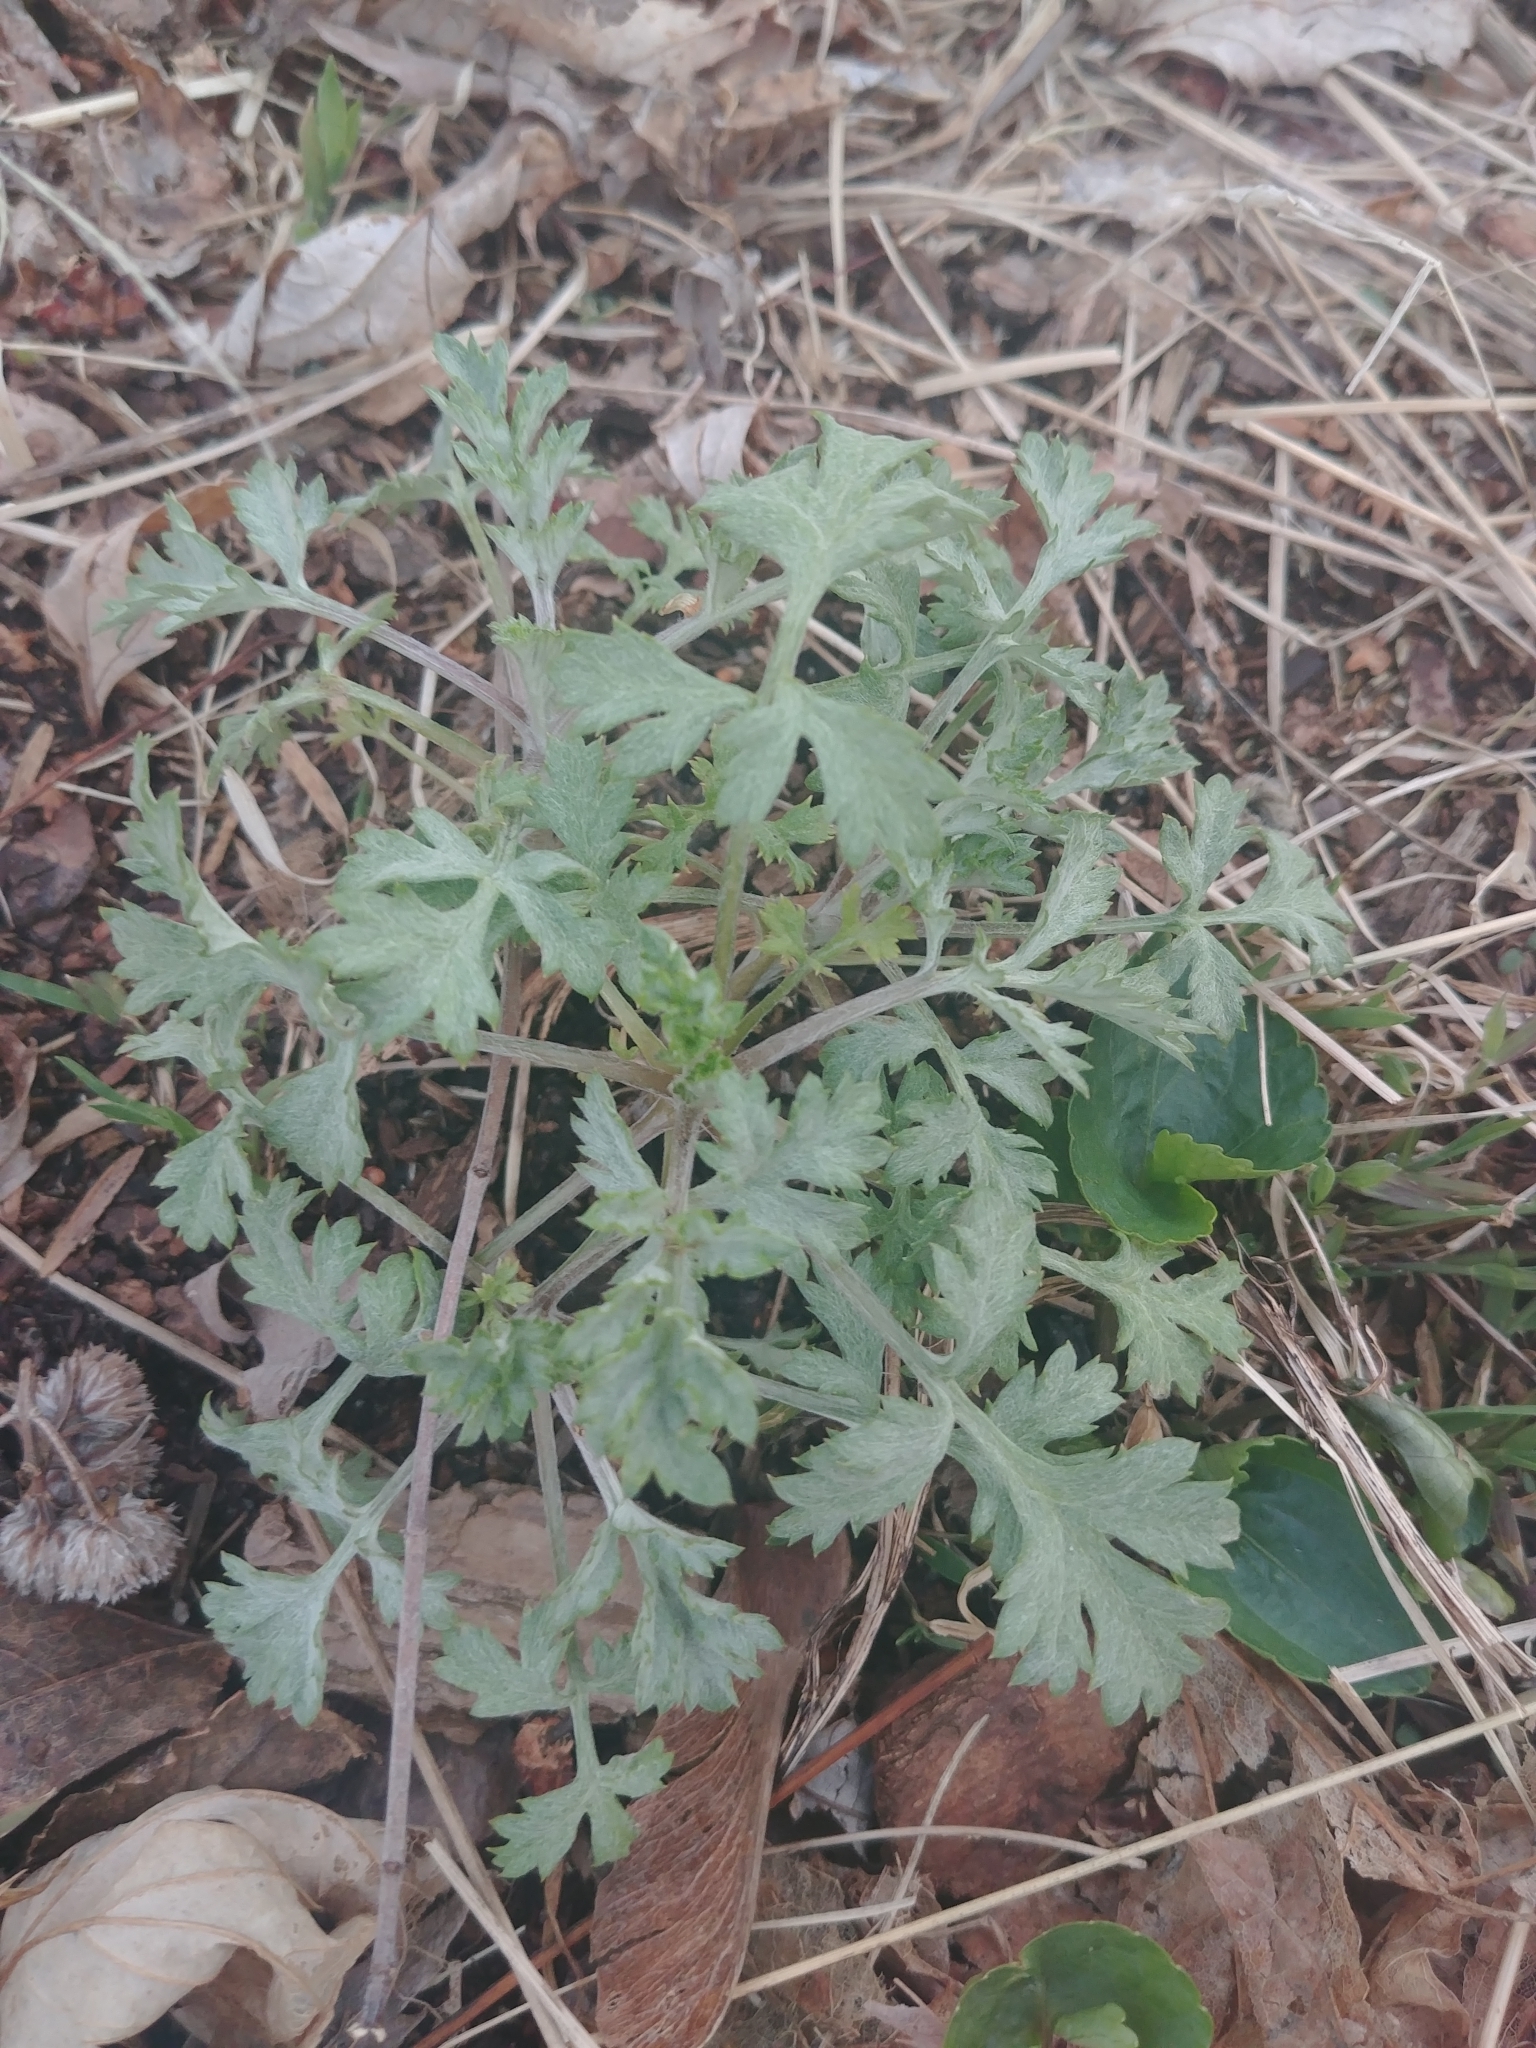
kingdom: Plantae
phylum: Tracheophyta
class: Magnoliopsida
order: Asterales
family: Asteraceae
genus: Artemisia
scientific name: Artemisia vulgaris
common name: Mugwort
